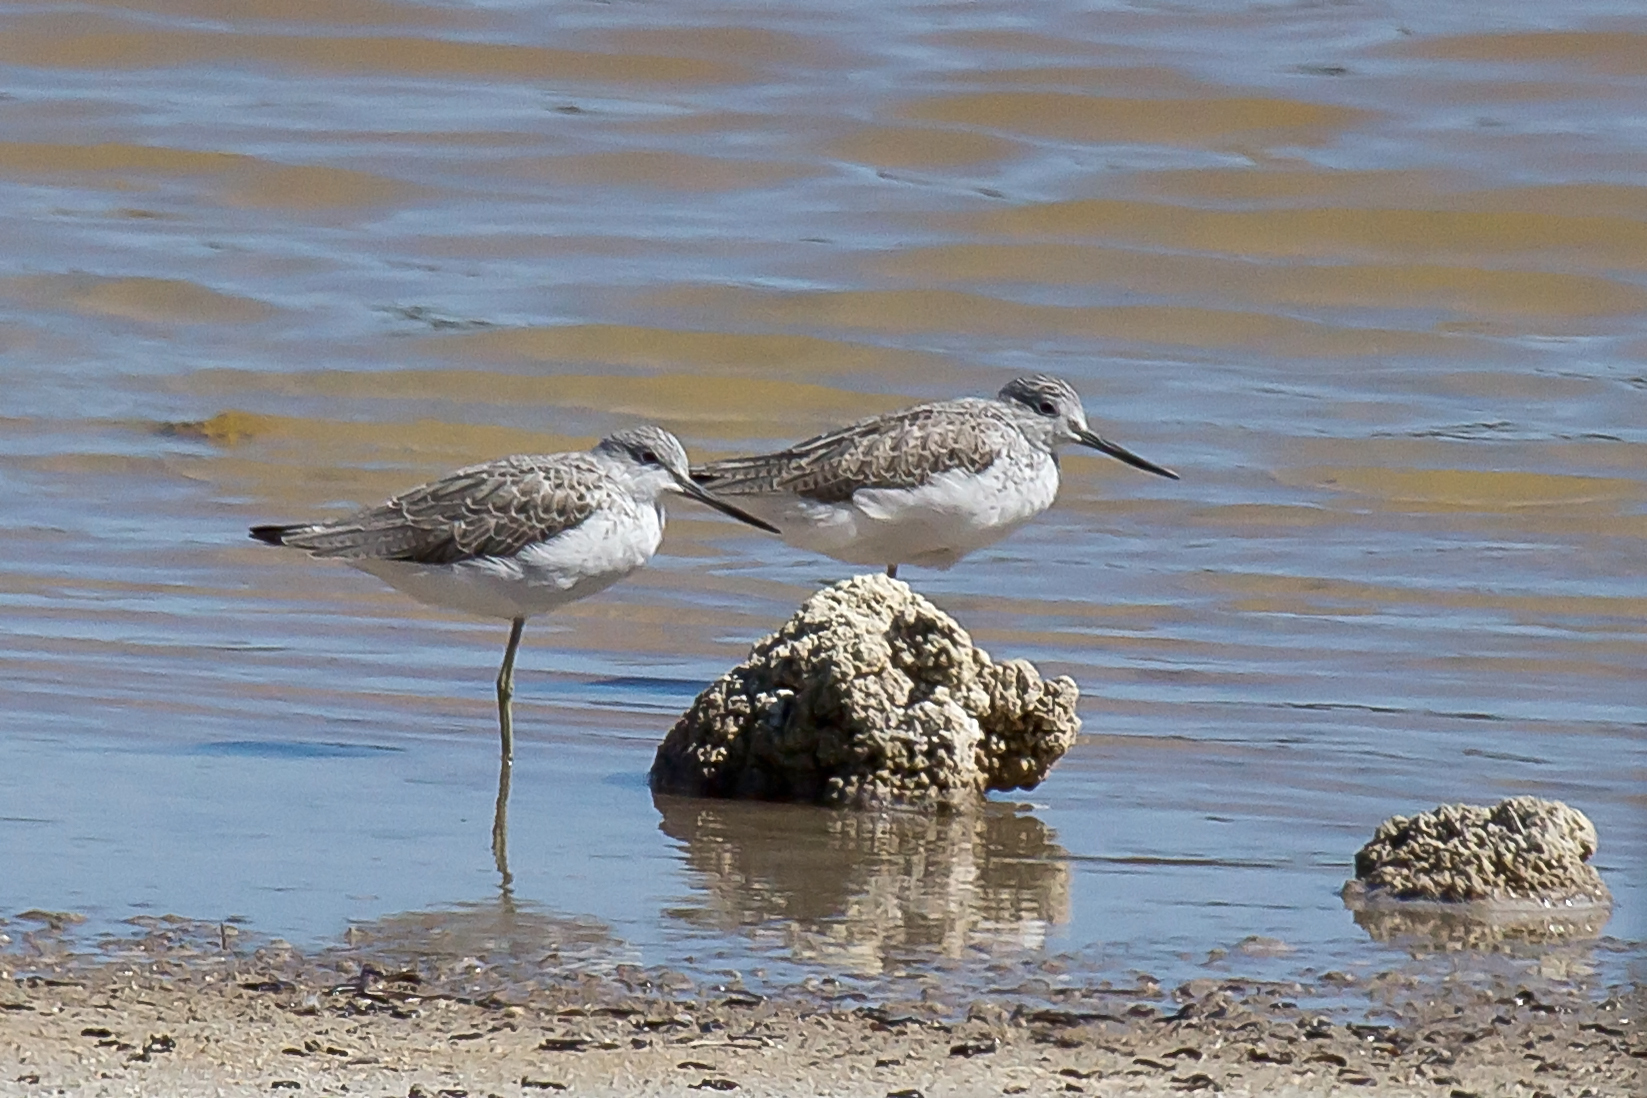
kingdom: Animalia
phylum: Chordata
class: Aves
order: Charadriiformes
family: Scolopacidae
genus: Tringa
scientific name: Tringa nebularia
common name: Common greenshank
